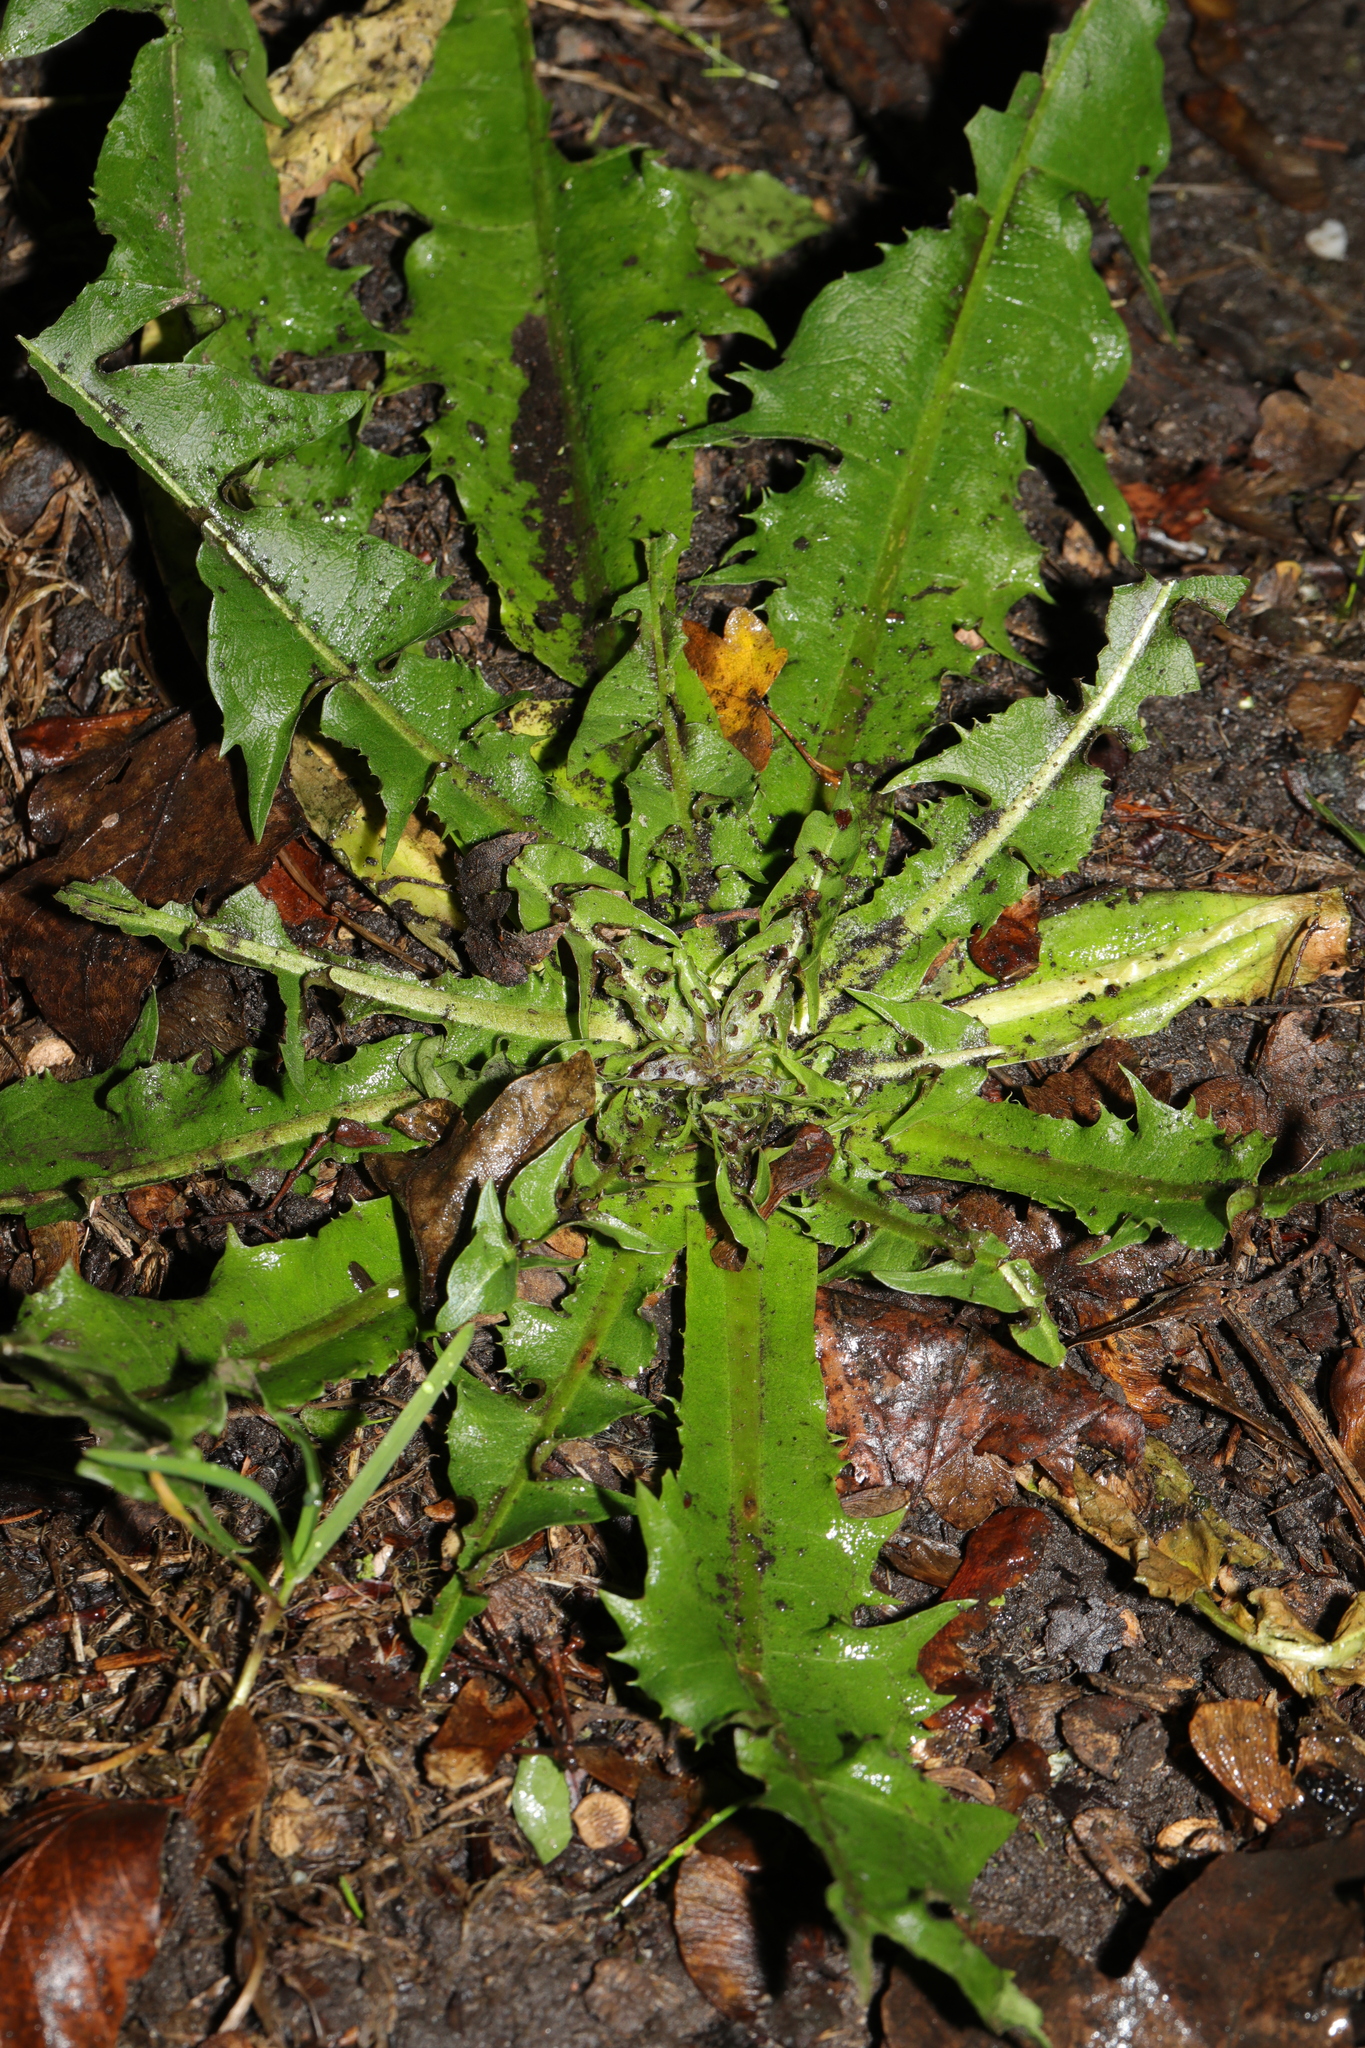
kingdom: Plantae
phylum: Tracheophyta
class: Magnoliopsida
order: Asterales
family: Asteraceae
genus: Taraxacum
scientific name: Taraxacum officinale
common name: Common dandelion
